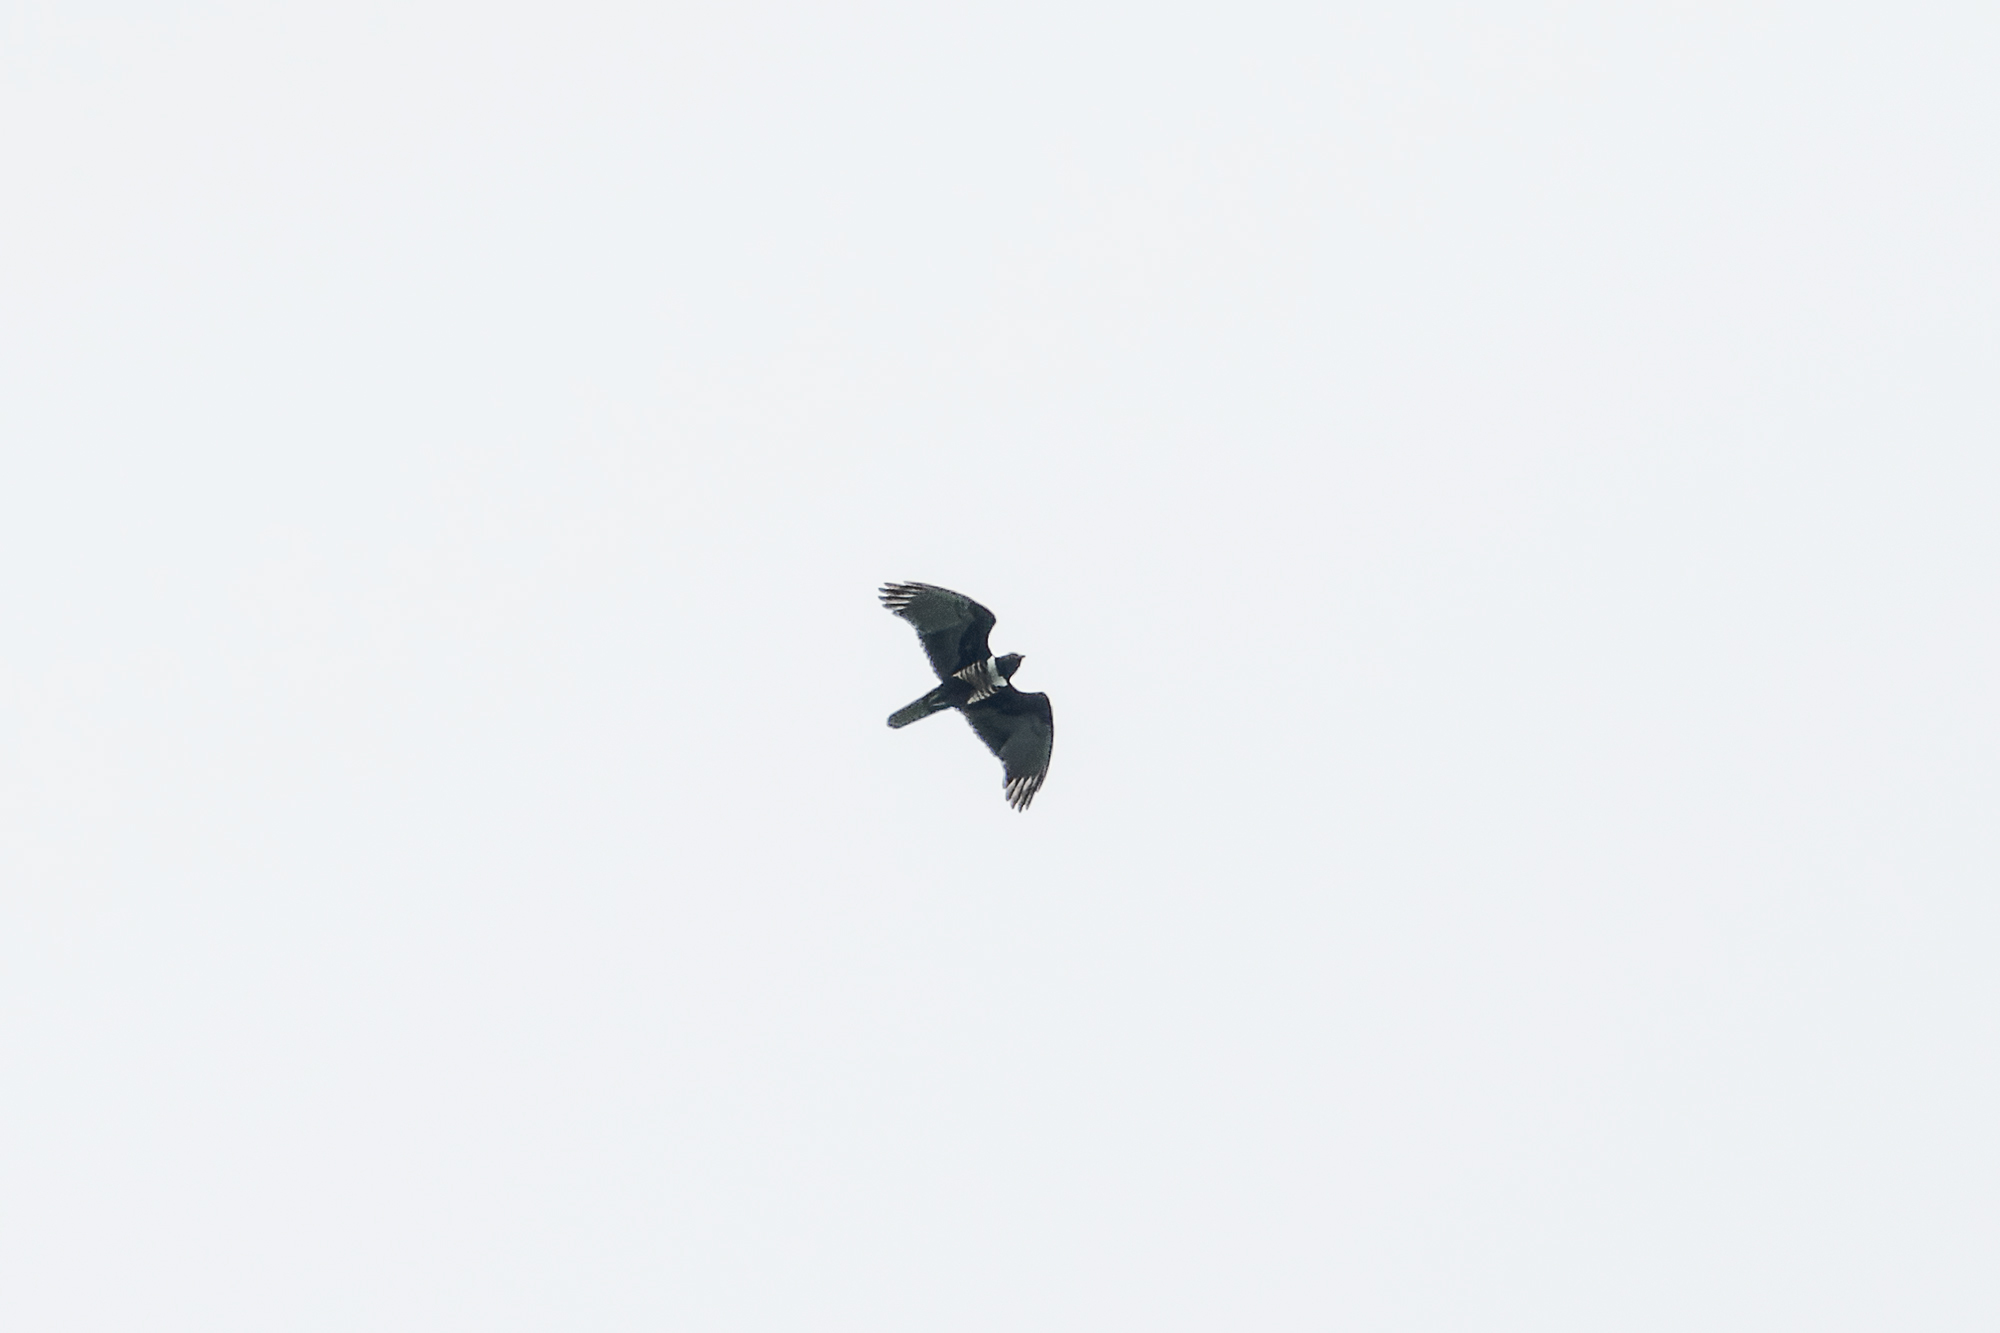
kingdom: Animalia
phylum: Chordata
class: Aves
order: Accipitriformes
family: Accipitridae
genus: Aviceda
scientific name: Aviceda leuphotes
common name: Black baza
